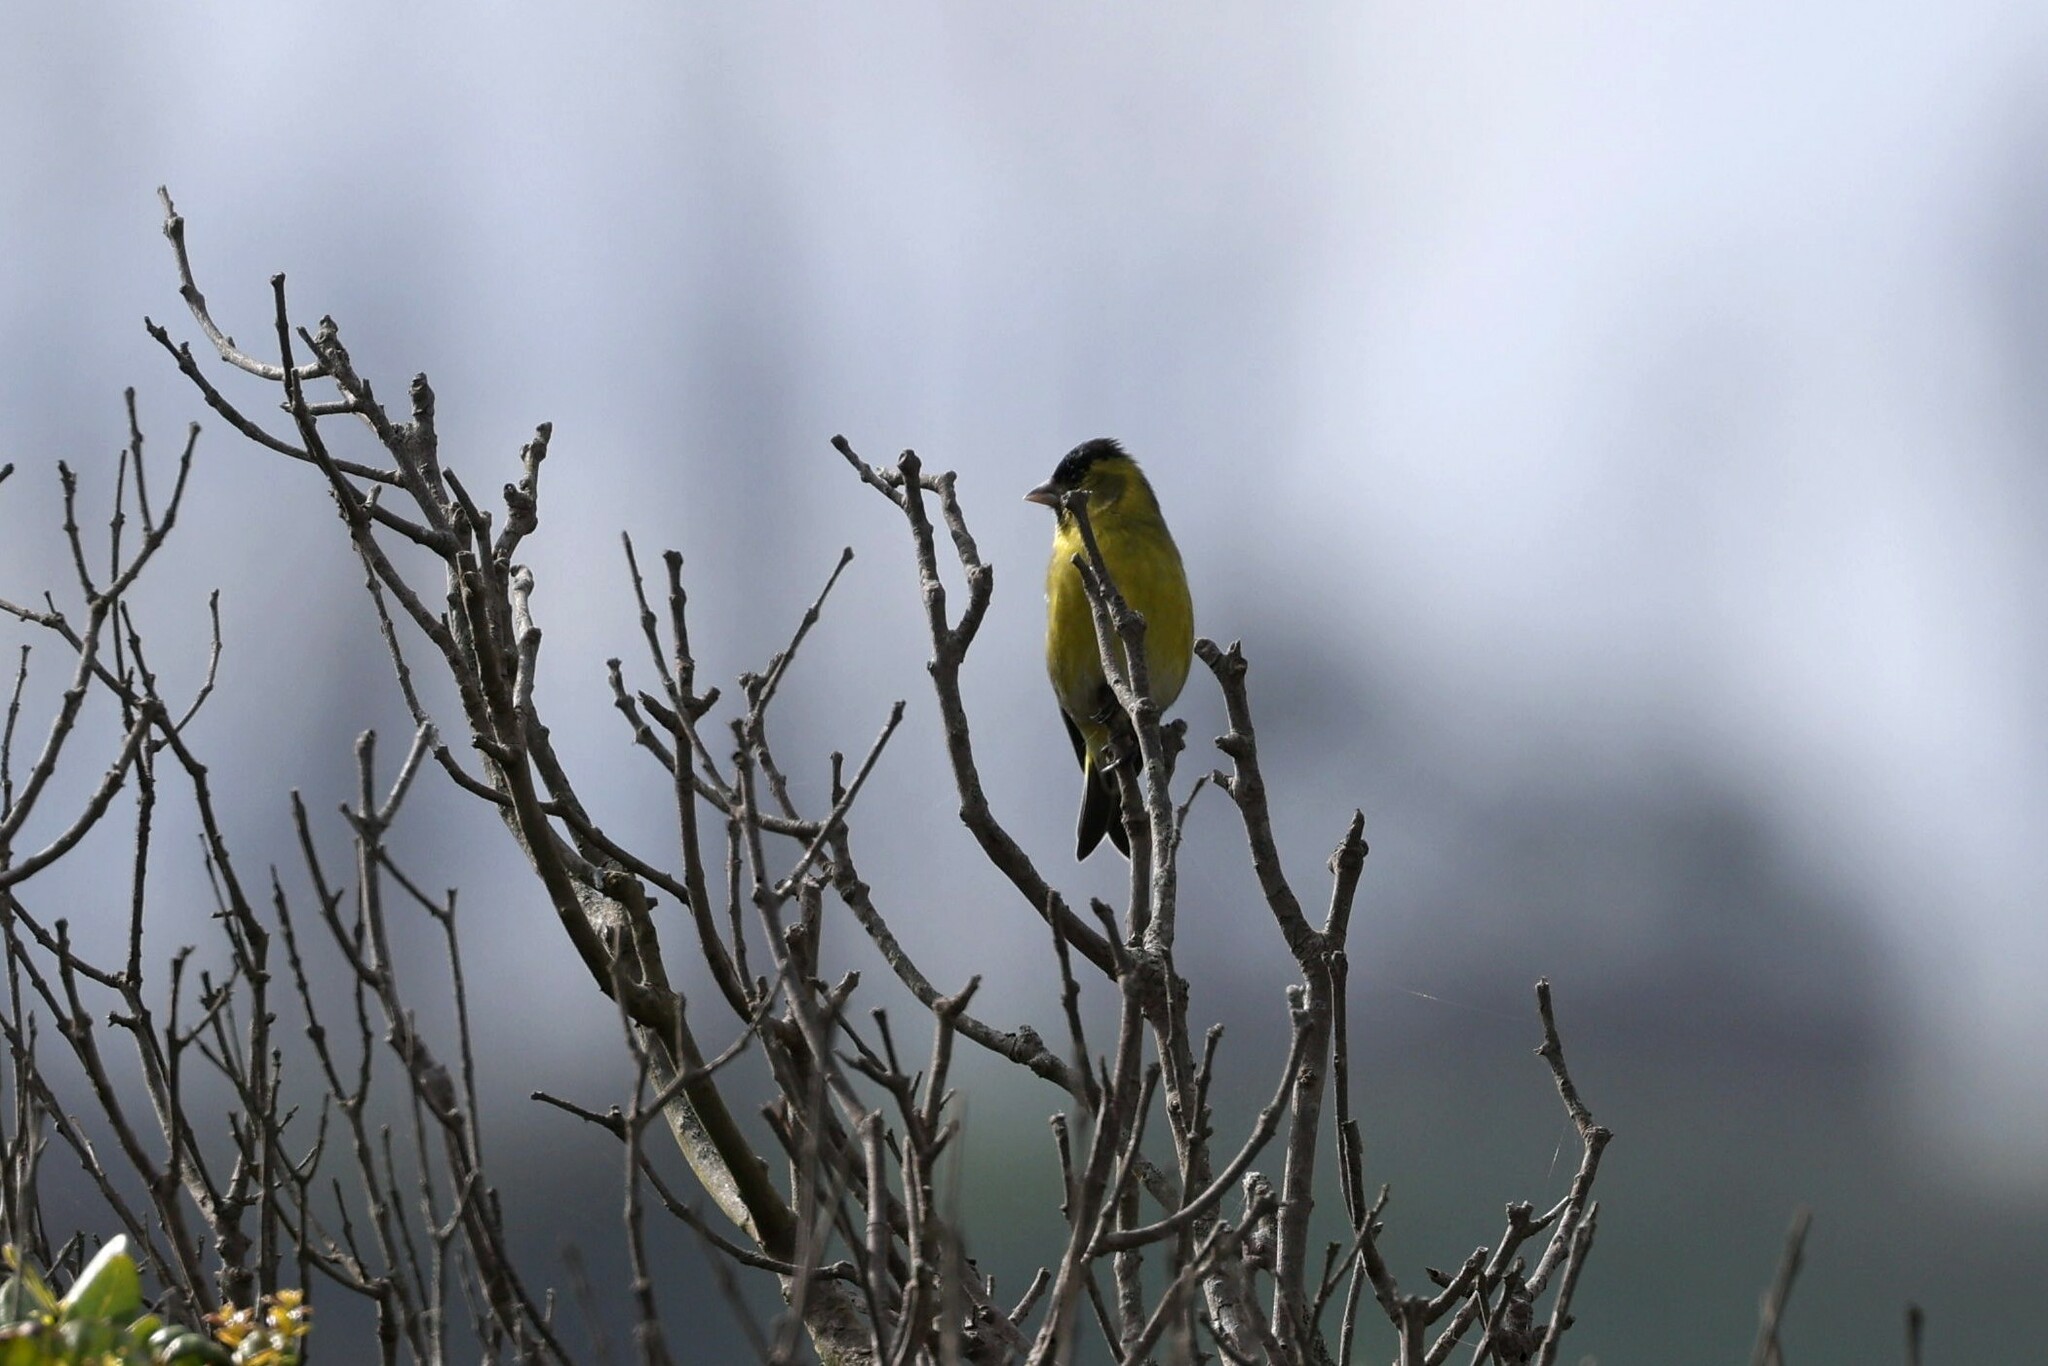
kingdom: Animalia
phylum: Chordata
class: Aves
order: Passeriformes
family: Fringillidae
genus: Spinus
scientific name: Spinus barbatus
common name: Black-chinned siskin
